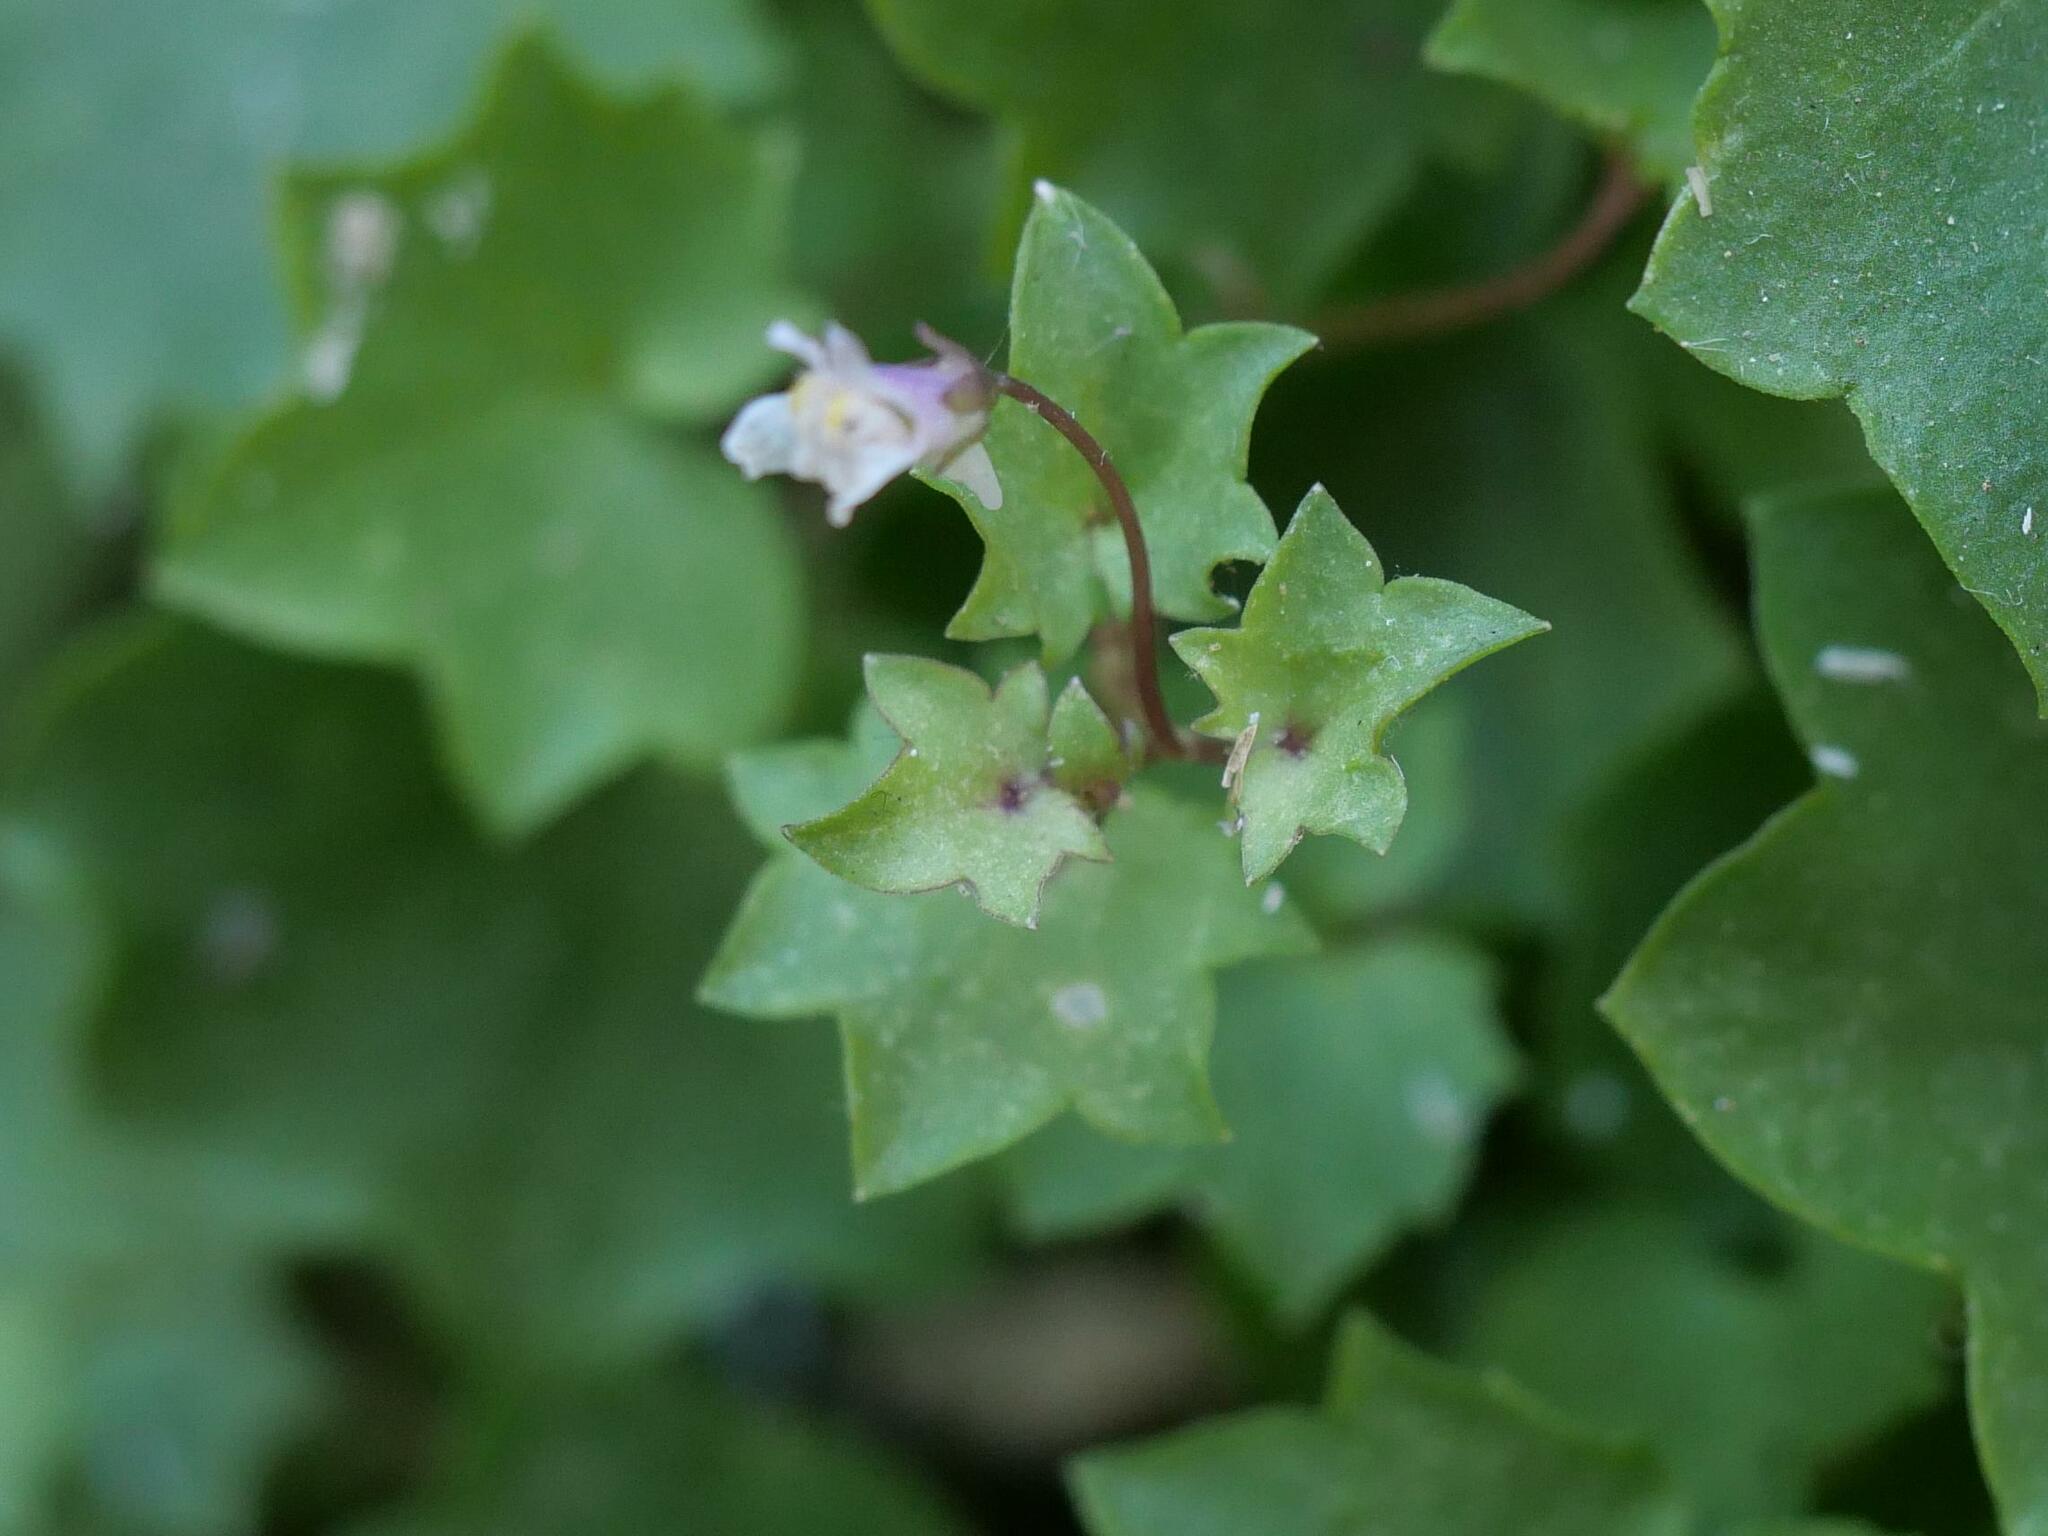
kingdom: Plantae
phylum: Tracheophyta
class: Magnoliopsida
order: Lamiales
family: Plantaginaceae
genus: Cymbalaria
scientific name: Cymbalaria muralis
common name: Ivy-leaved toadflax
